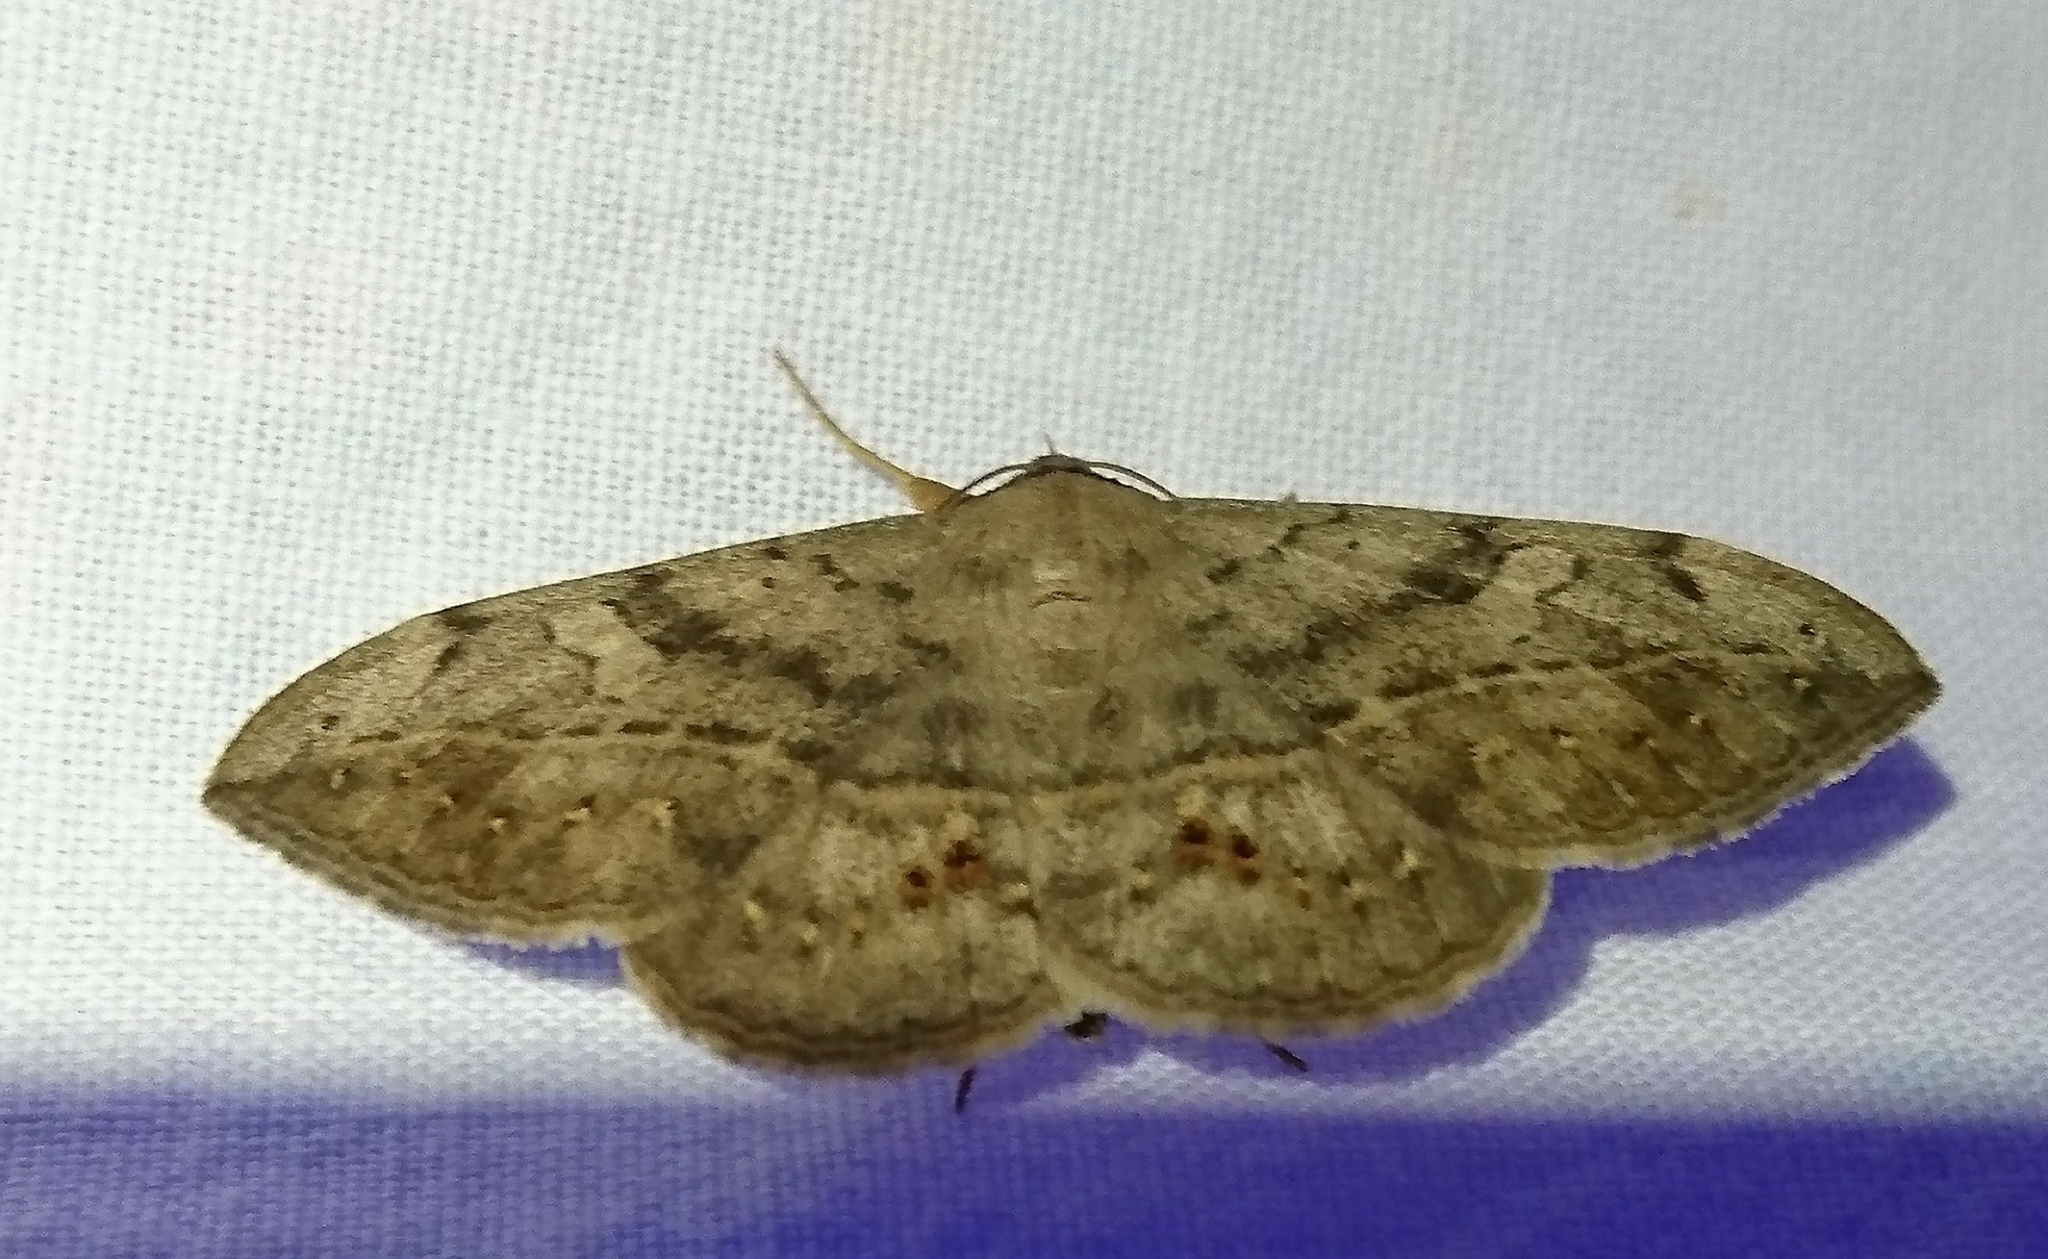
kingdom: Animalia
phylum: Arthropoda
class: Insecta
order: Lepidoptera
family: Erebidae
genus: Anticarsia
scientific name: Anticarsia gemmatalis
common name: Cutworm moth
